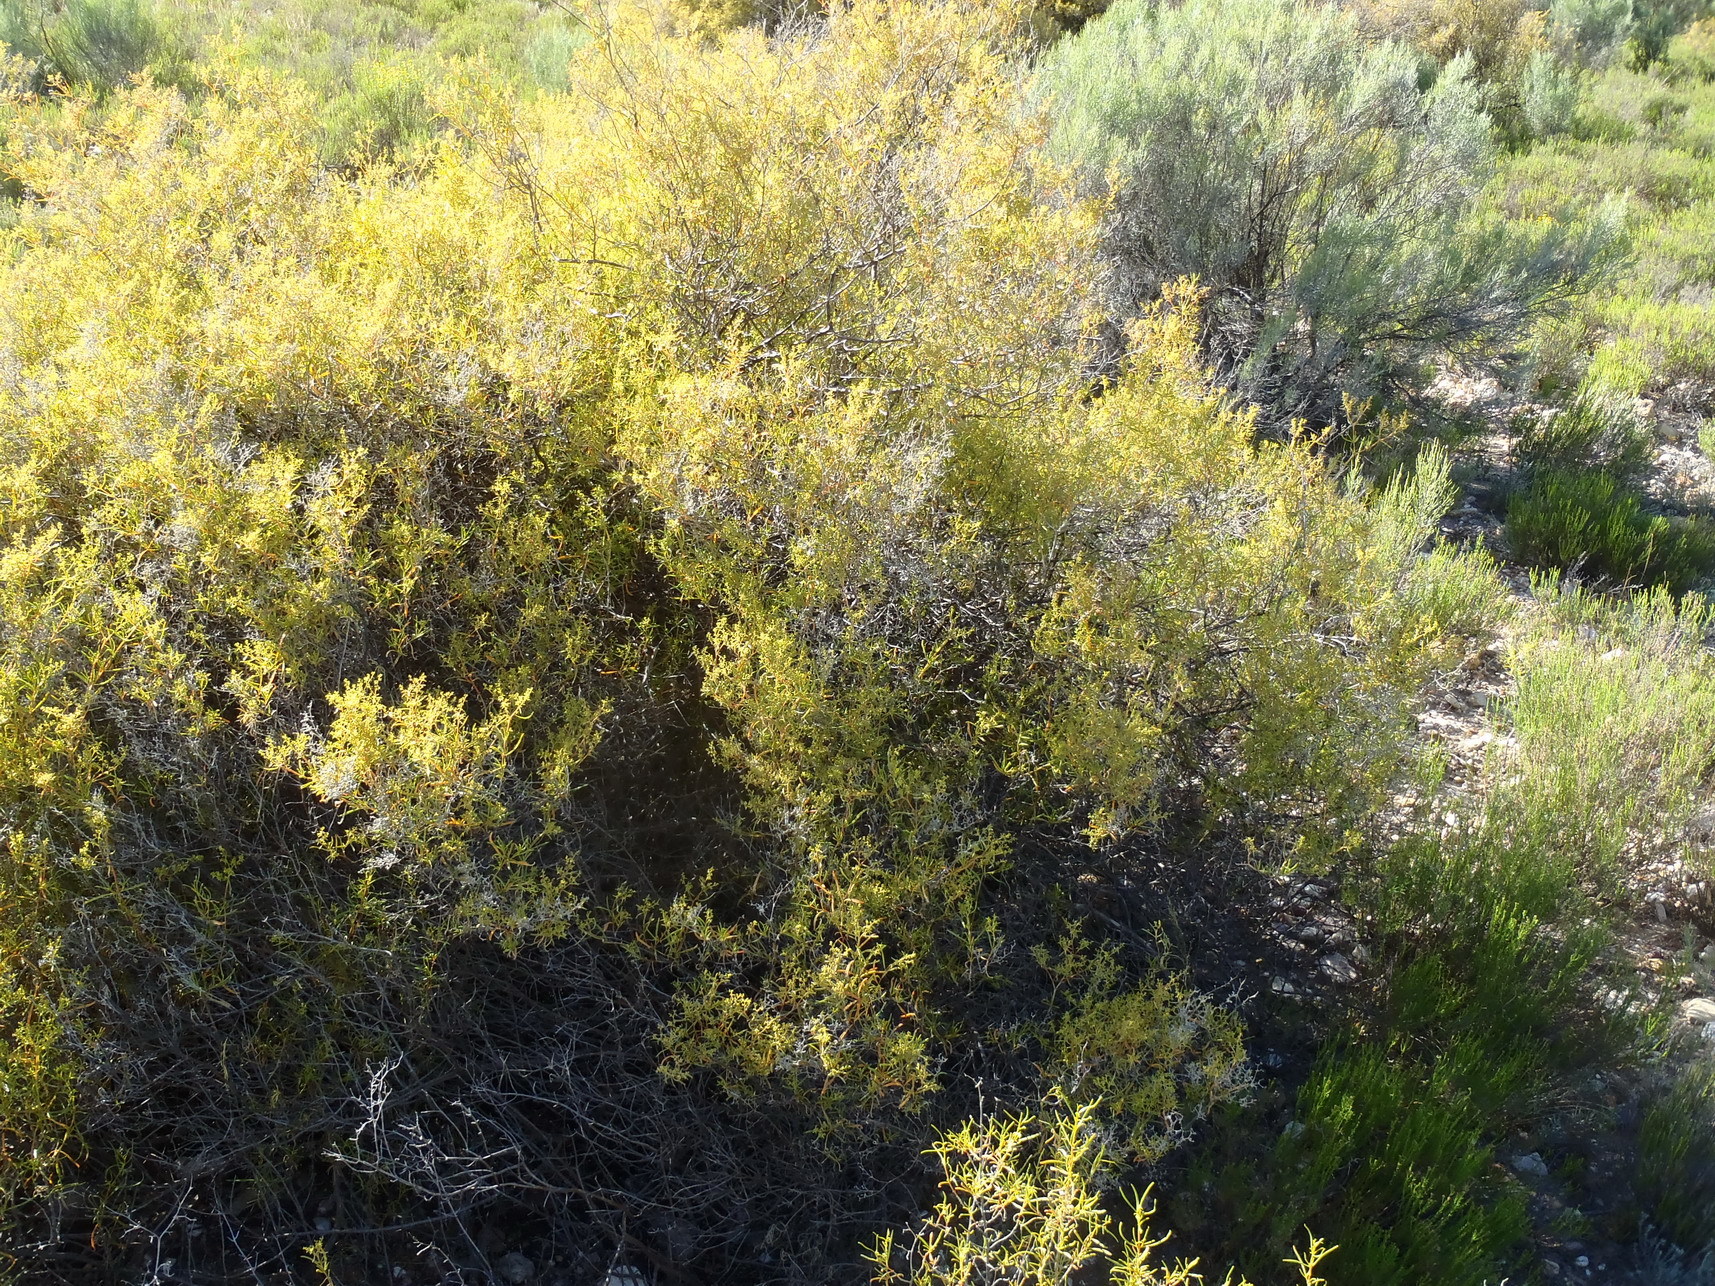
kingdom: Plantae
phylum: Tracheophyta
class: Magnoliopsida
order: Caryophyllales
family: Aizoaceae
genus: Aizoon
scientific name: Aizoon africanum
